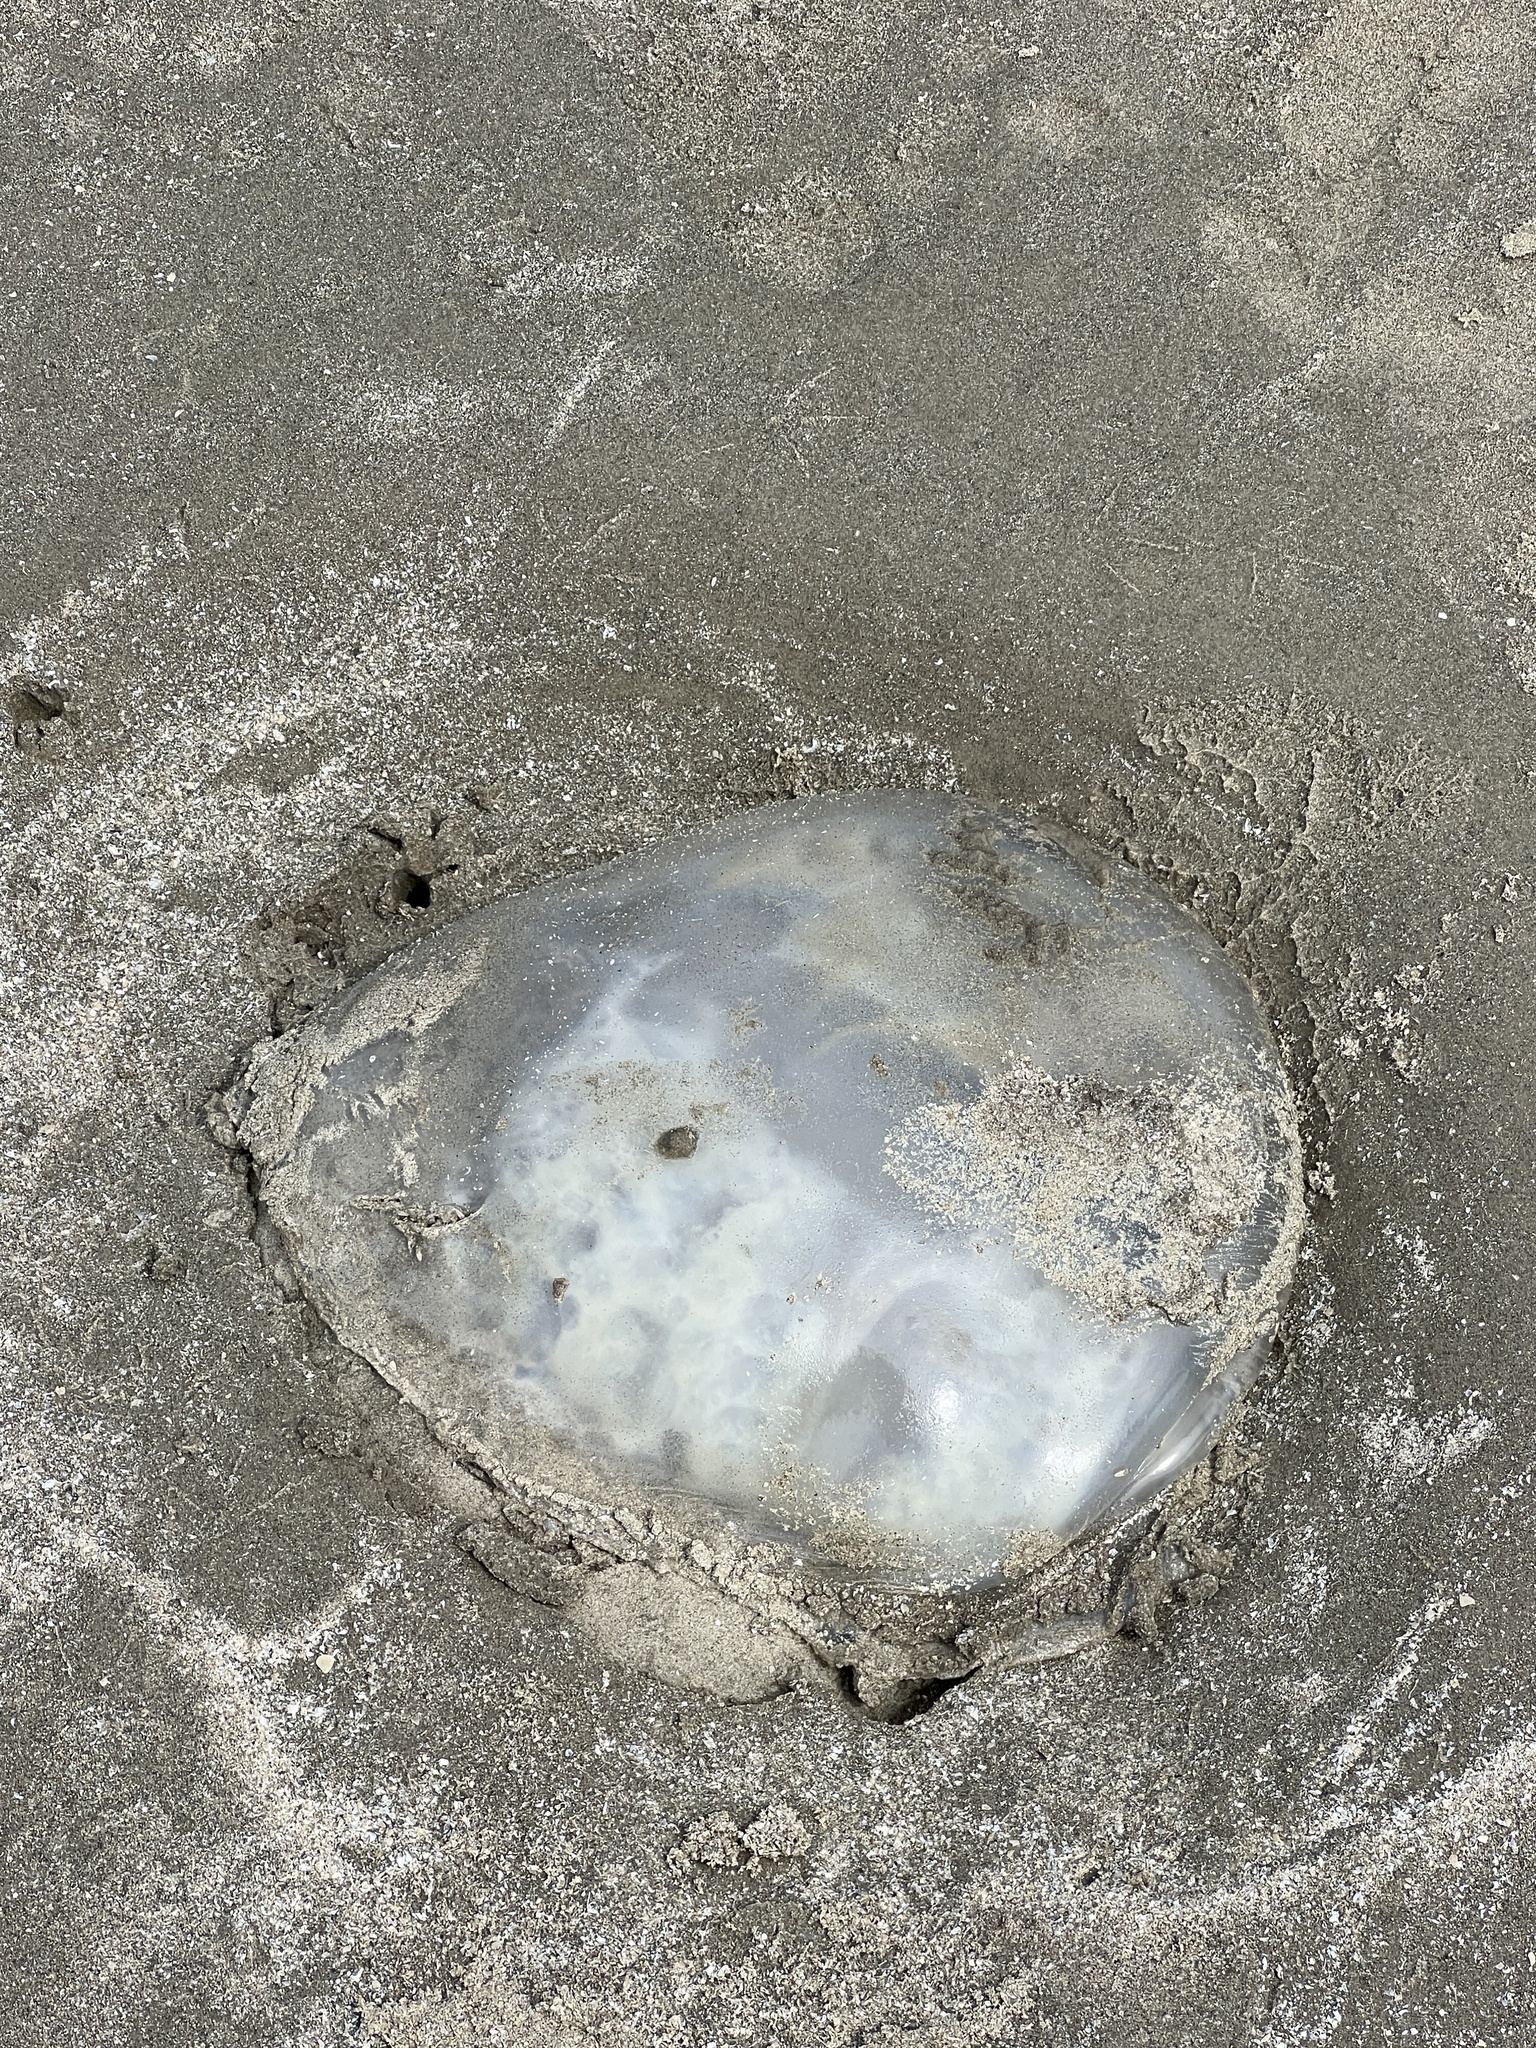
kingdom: Animalia
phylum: Cnidaria
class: Scyphozoa
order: Rhizostomeae
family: Stomolophidae
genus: Stomolophus
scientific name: Stomolophus meleagris
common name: Cabbagehead
